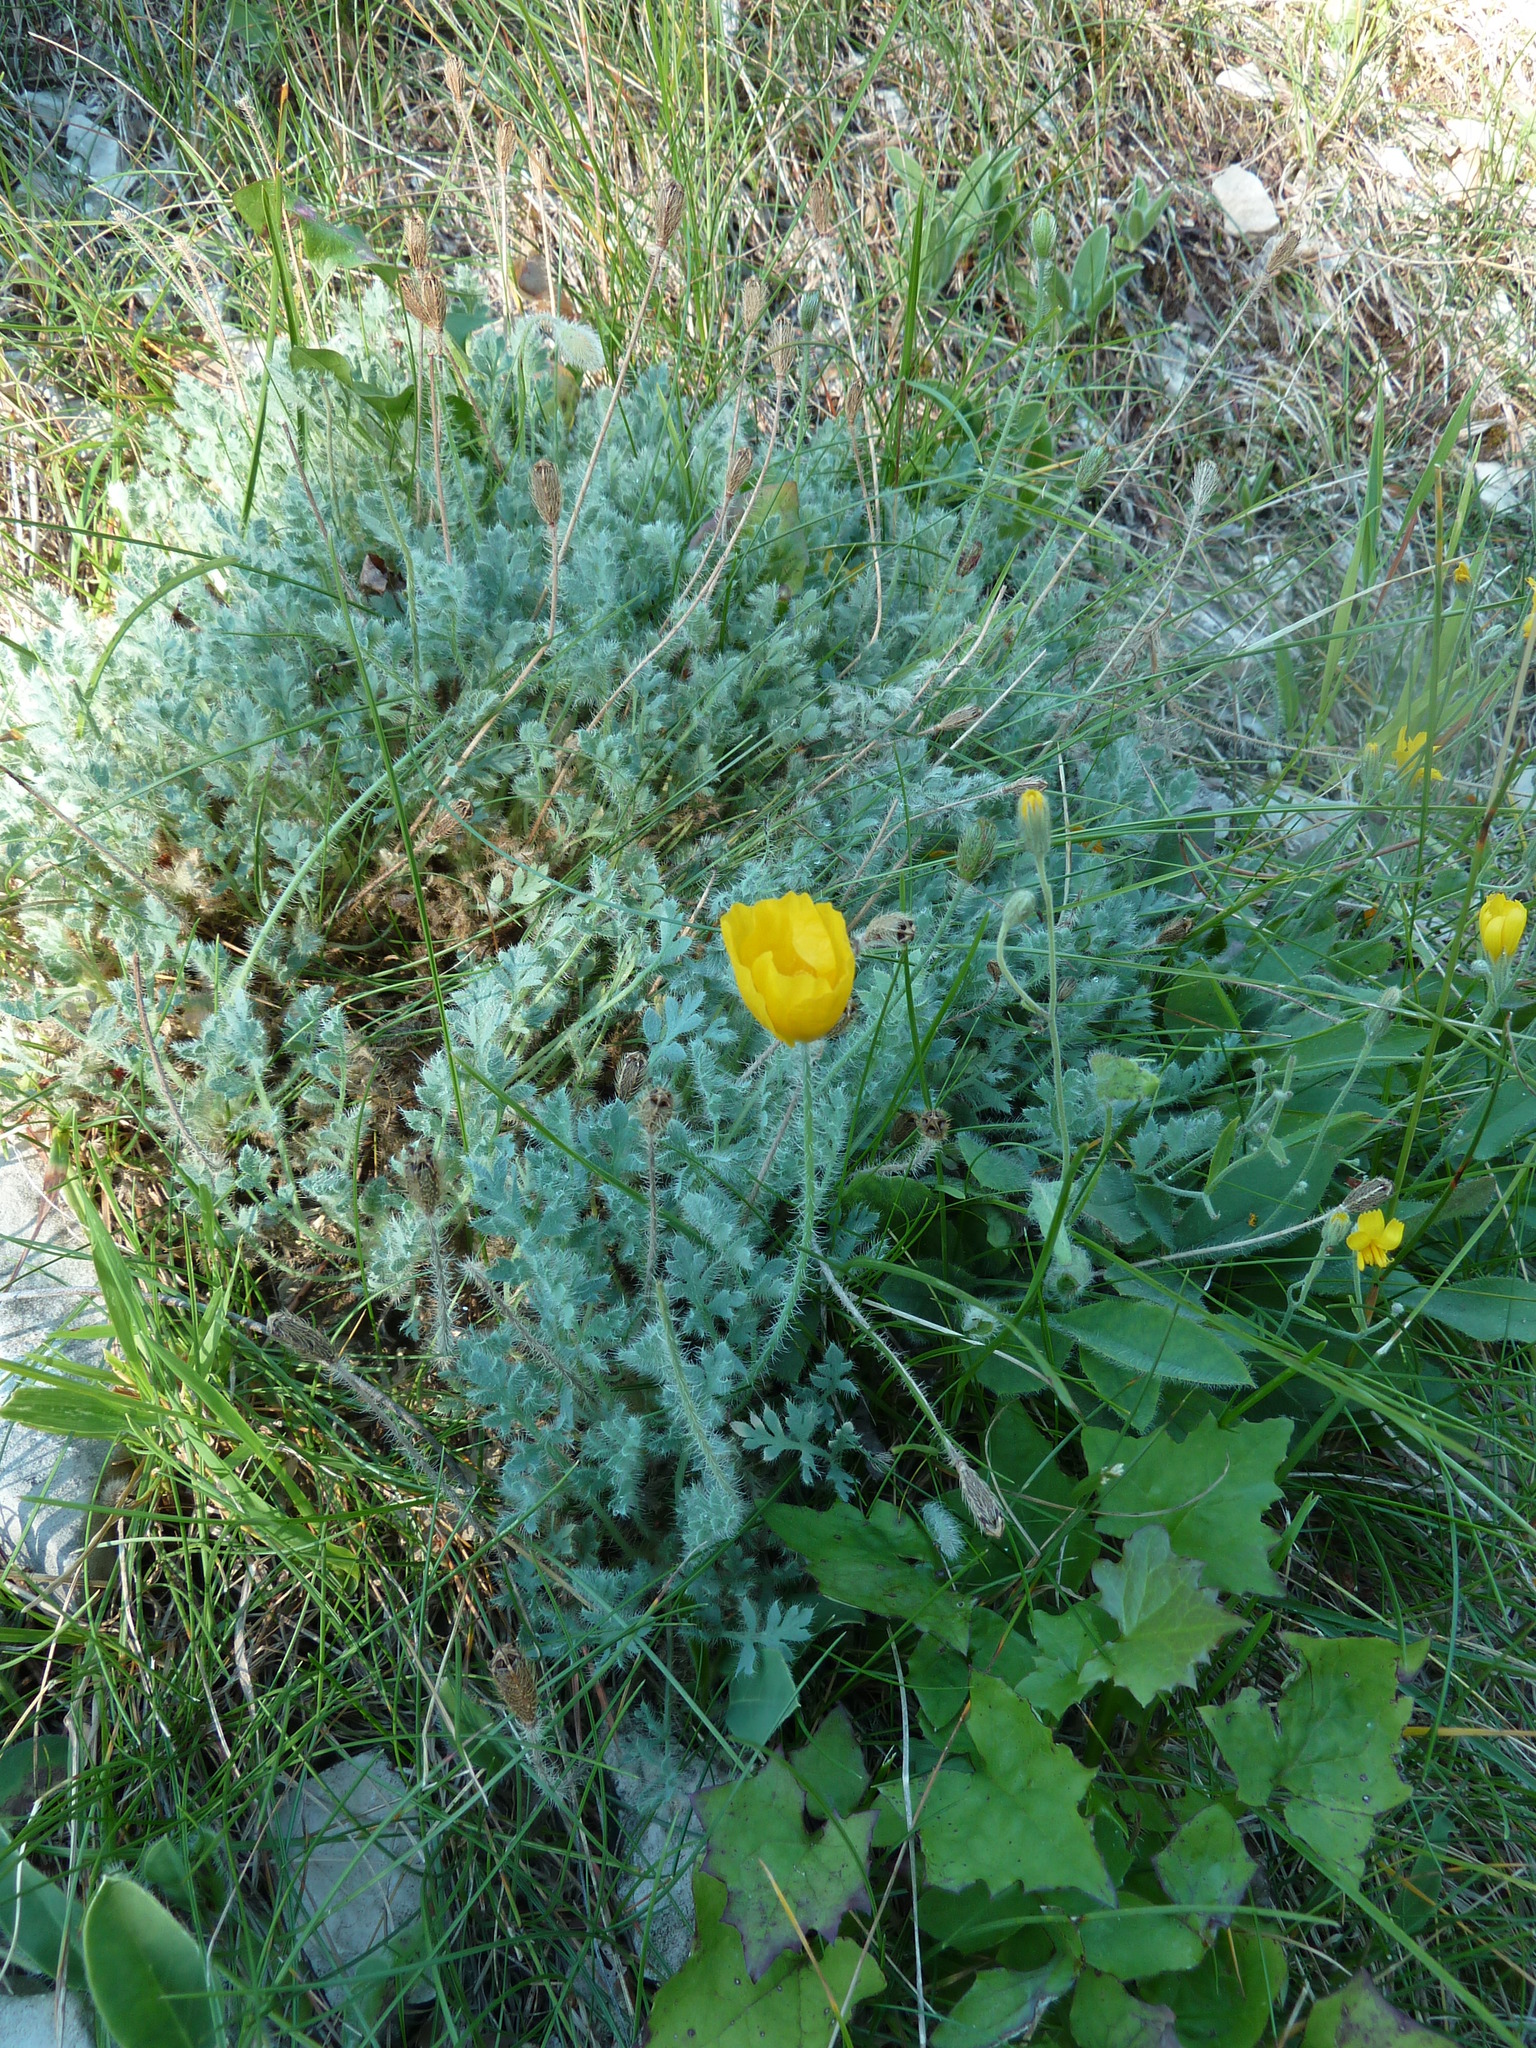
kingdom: Plantae
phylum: Tracheophyta
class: Magnoliopsida
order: Ranunculales
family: Papaveraceae
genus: Papaver
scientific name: Papaver alpinum
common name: Austrian poppy
